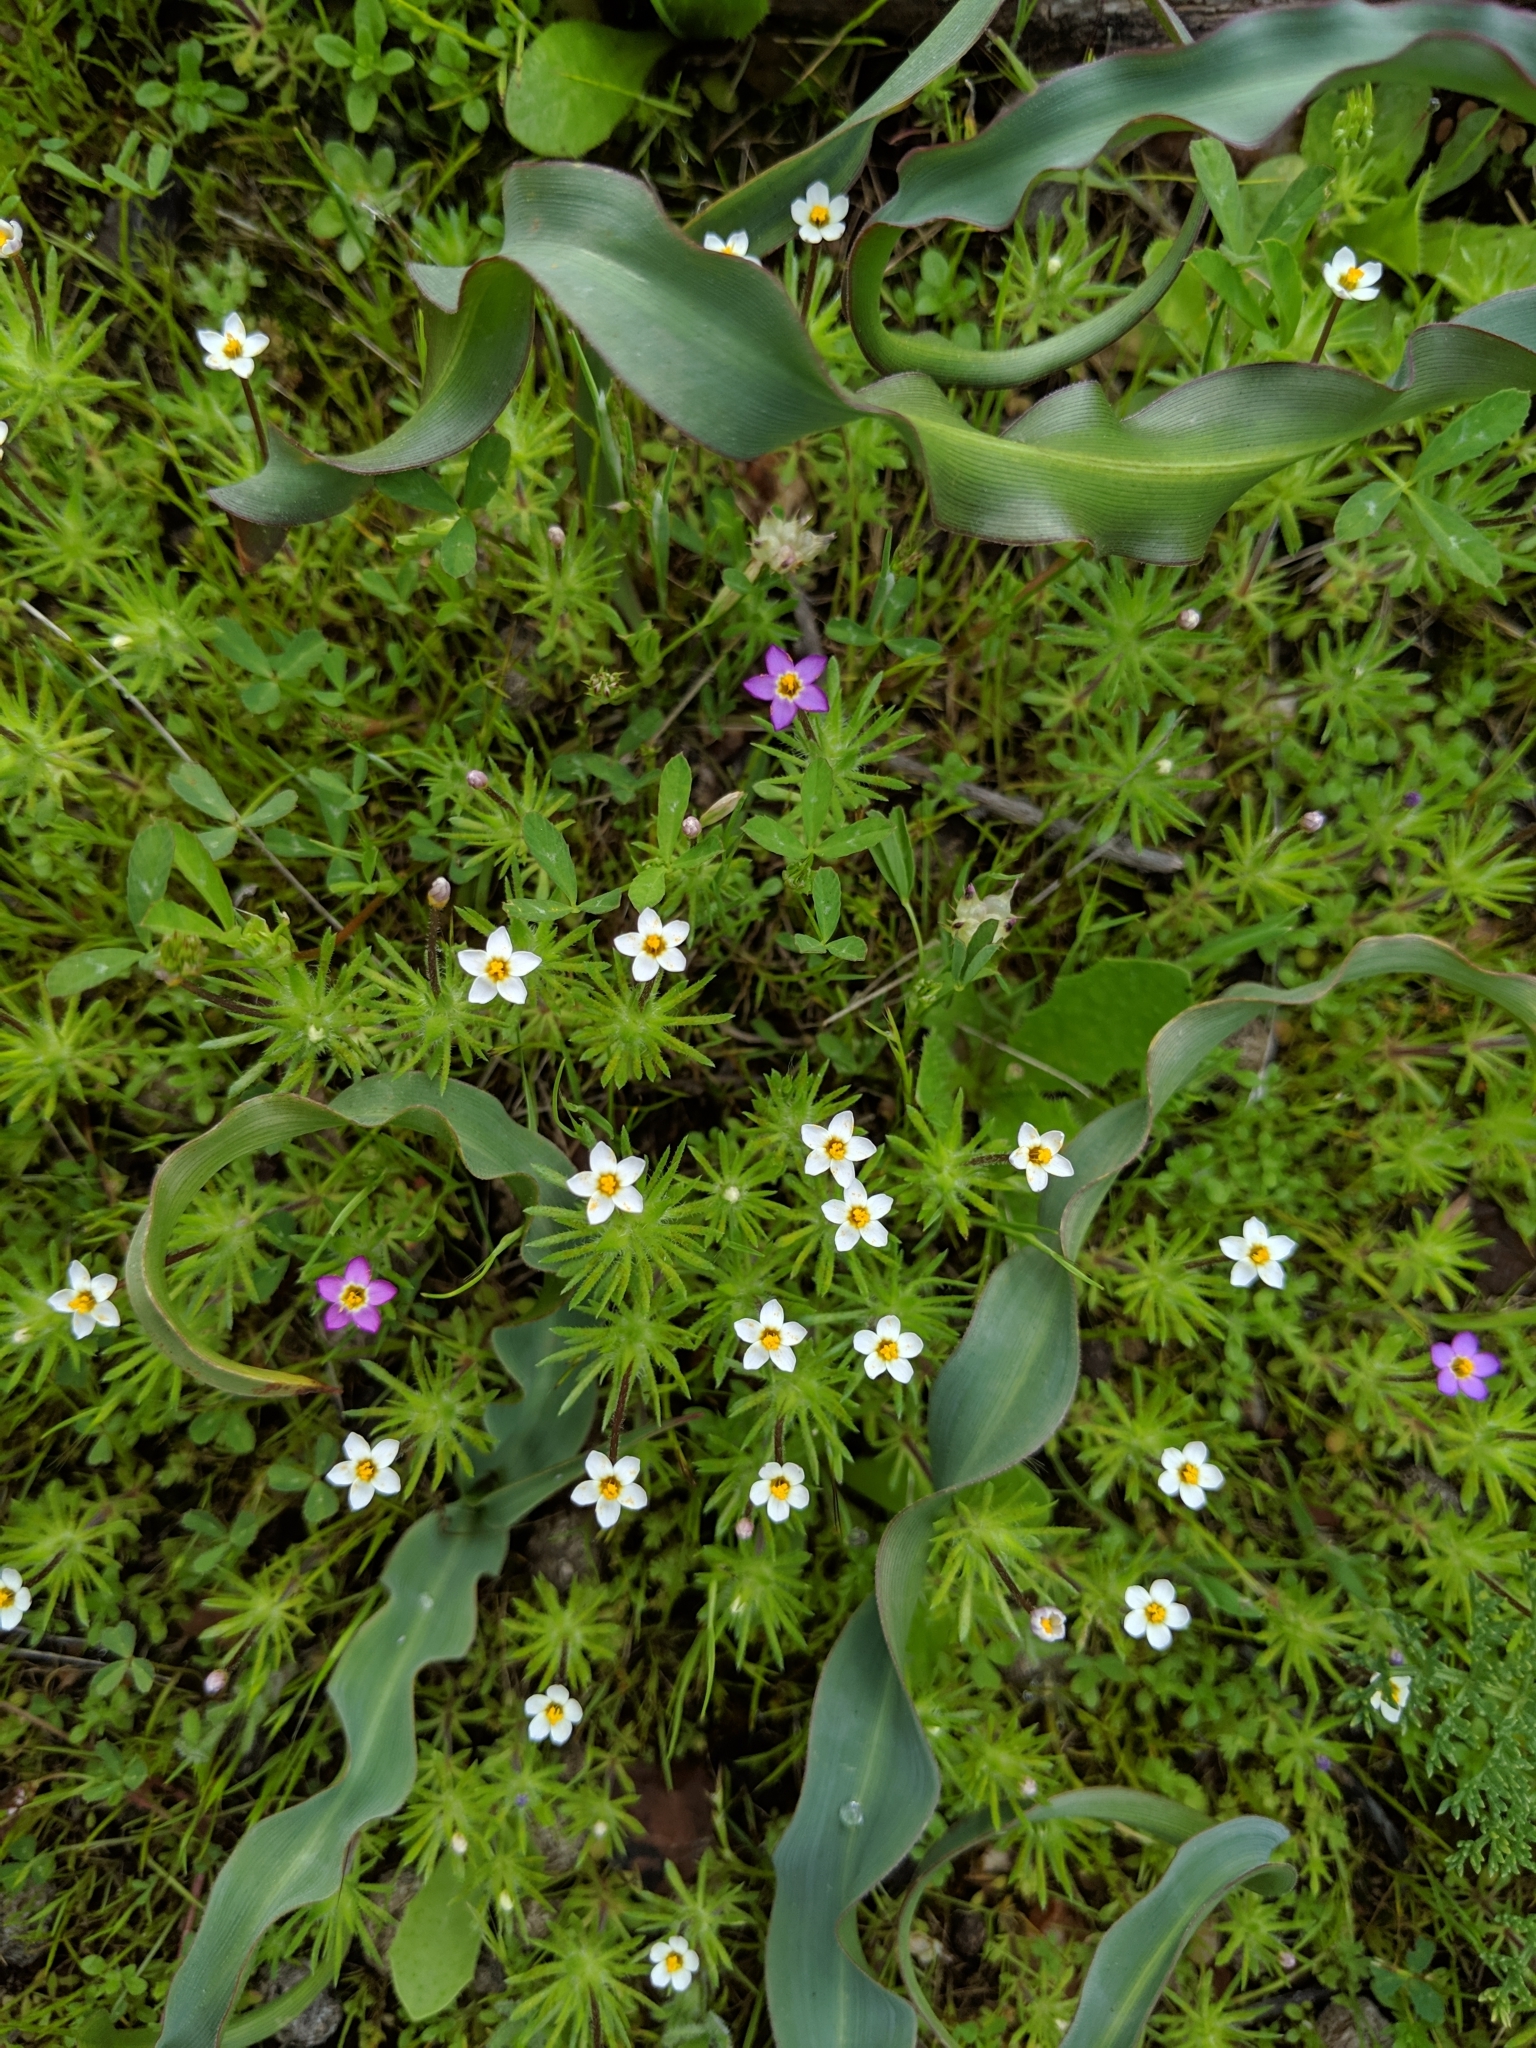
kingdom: Plantae
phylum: Tracheophyta
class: Magnoliopsida
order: Ericales
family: Polemoniaceae
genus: Leptosiphon
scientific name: Leptosiphon bicolor
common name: True babystars
